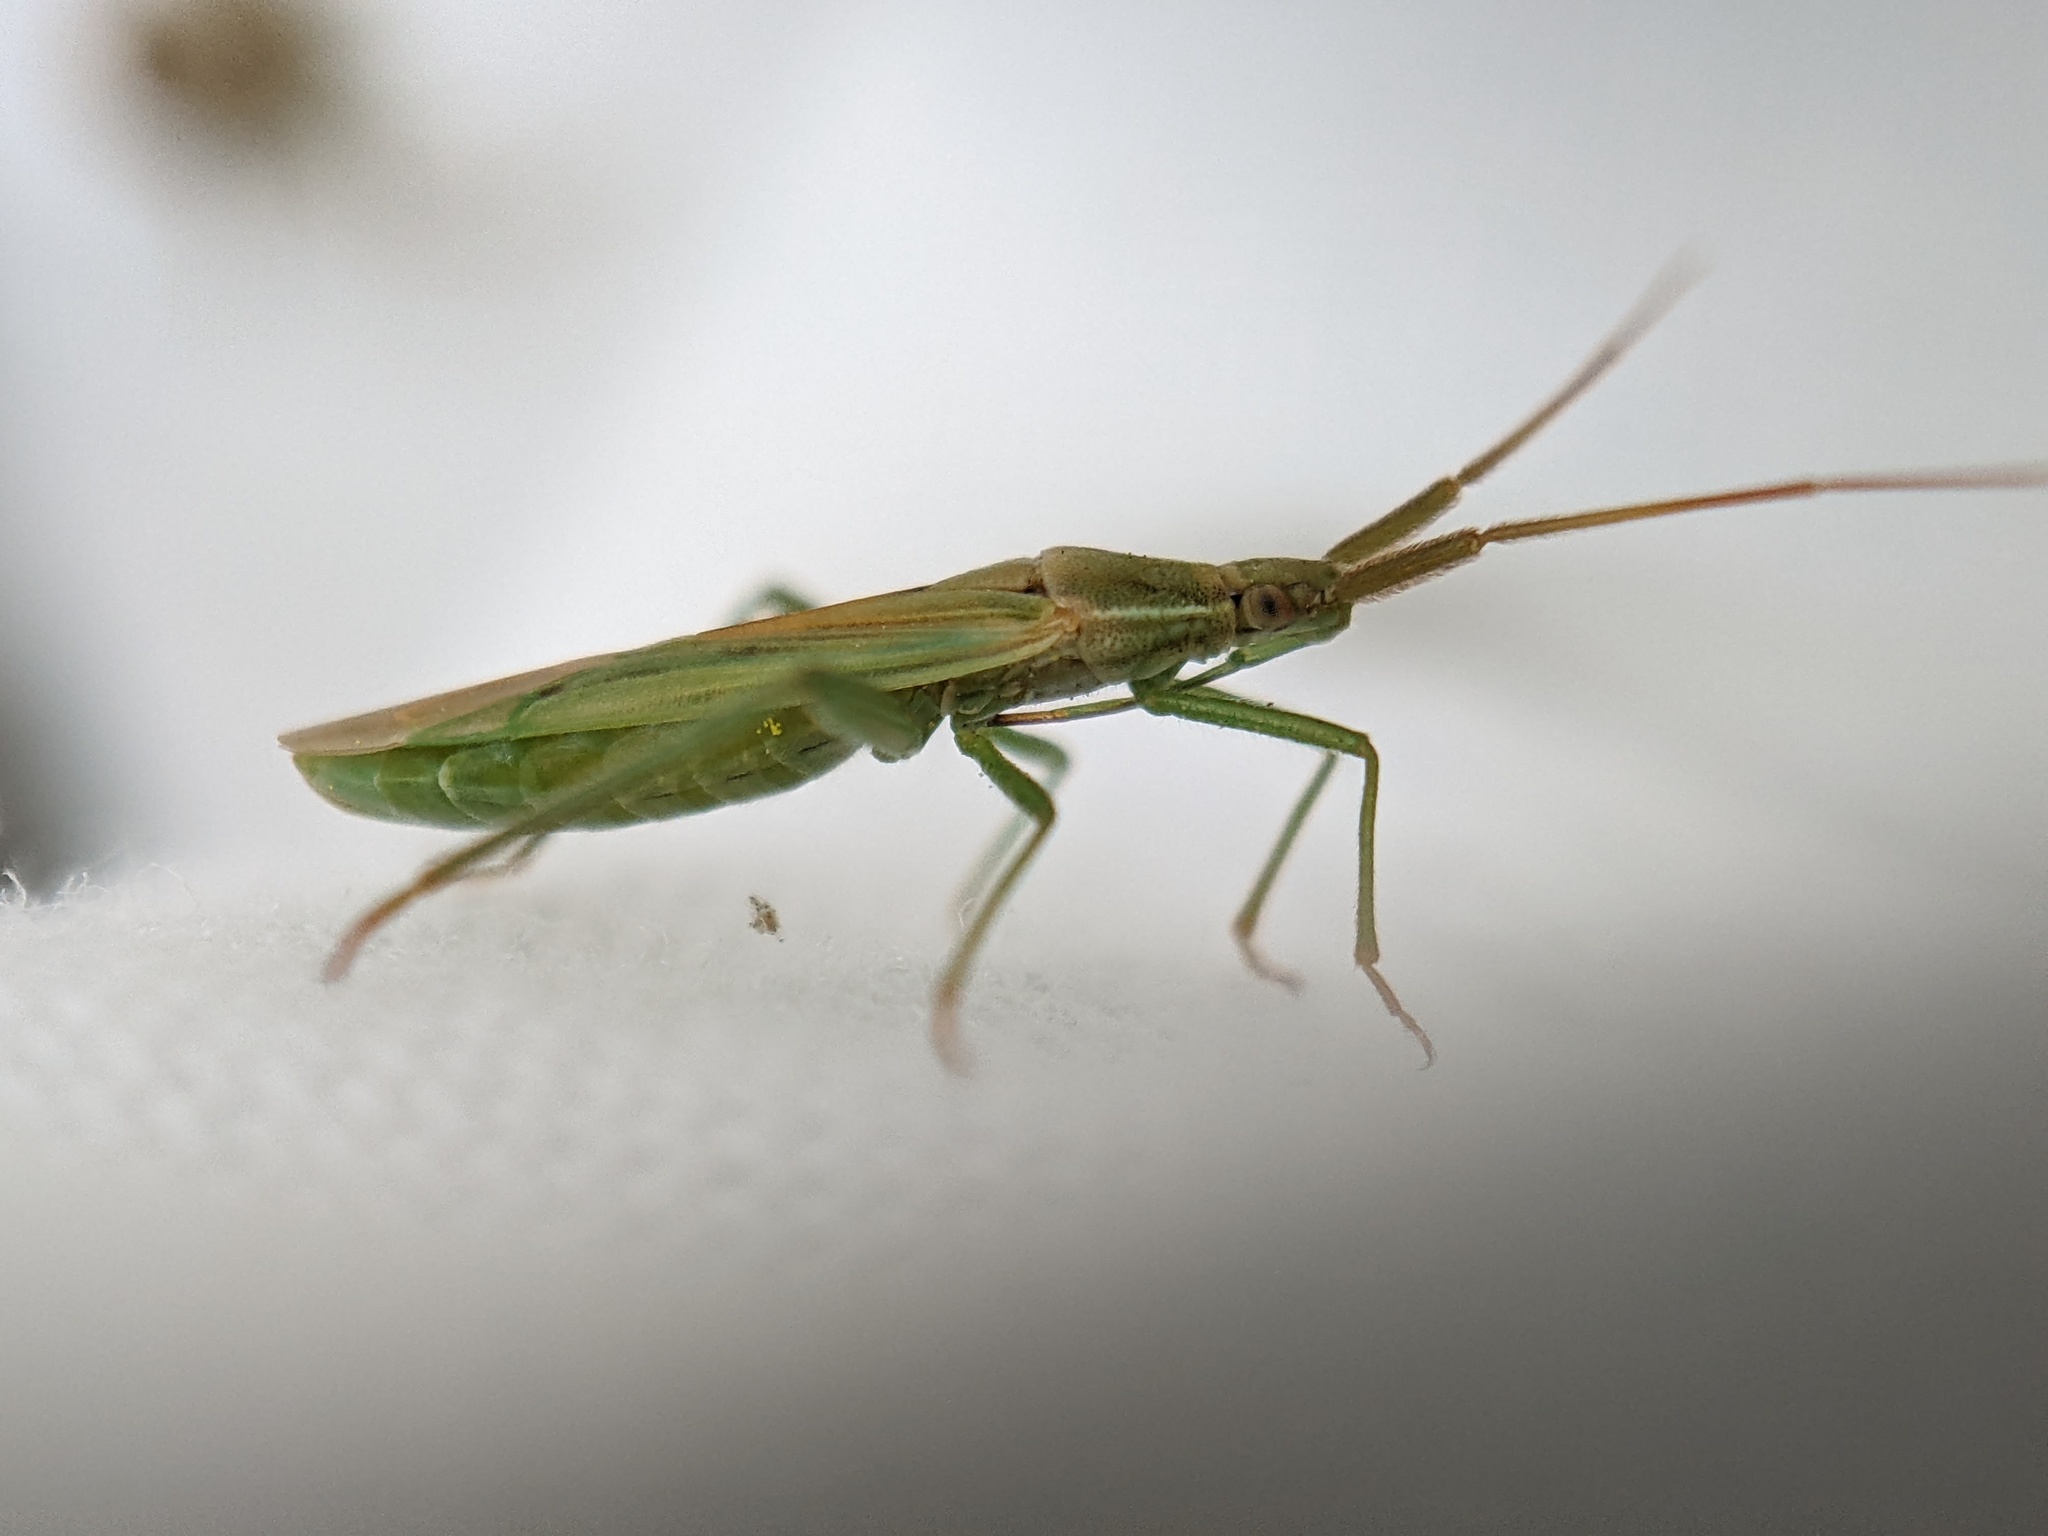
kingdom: Animalia
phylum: Arthropoda
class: Insecta
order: Hemiptera
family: Miridae
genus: Stenodema
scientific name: Stenodema laevigata
